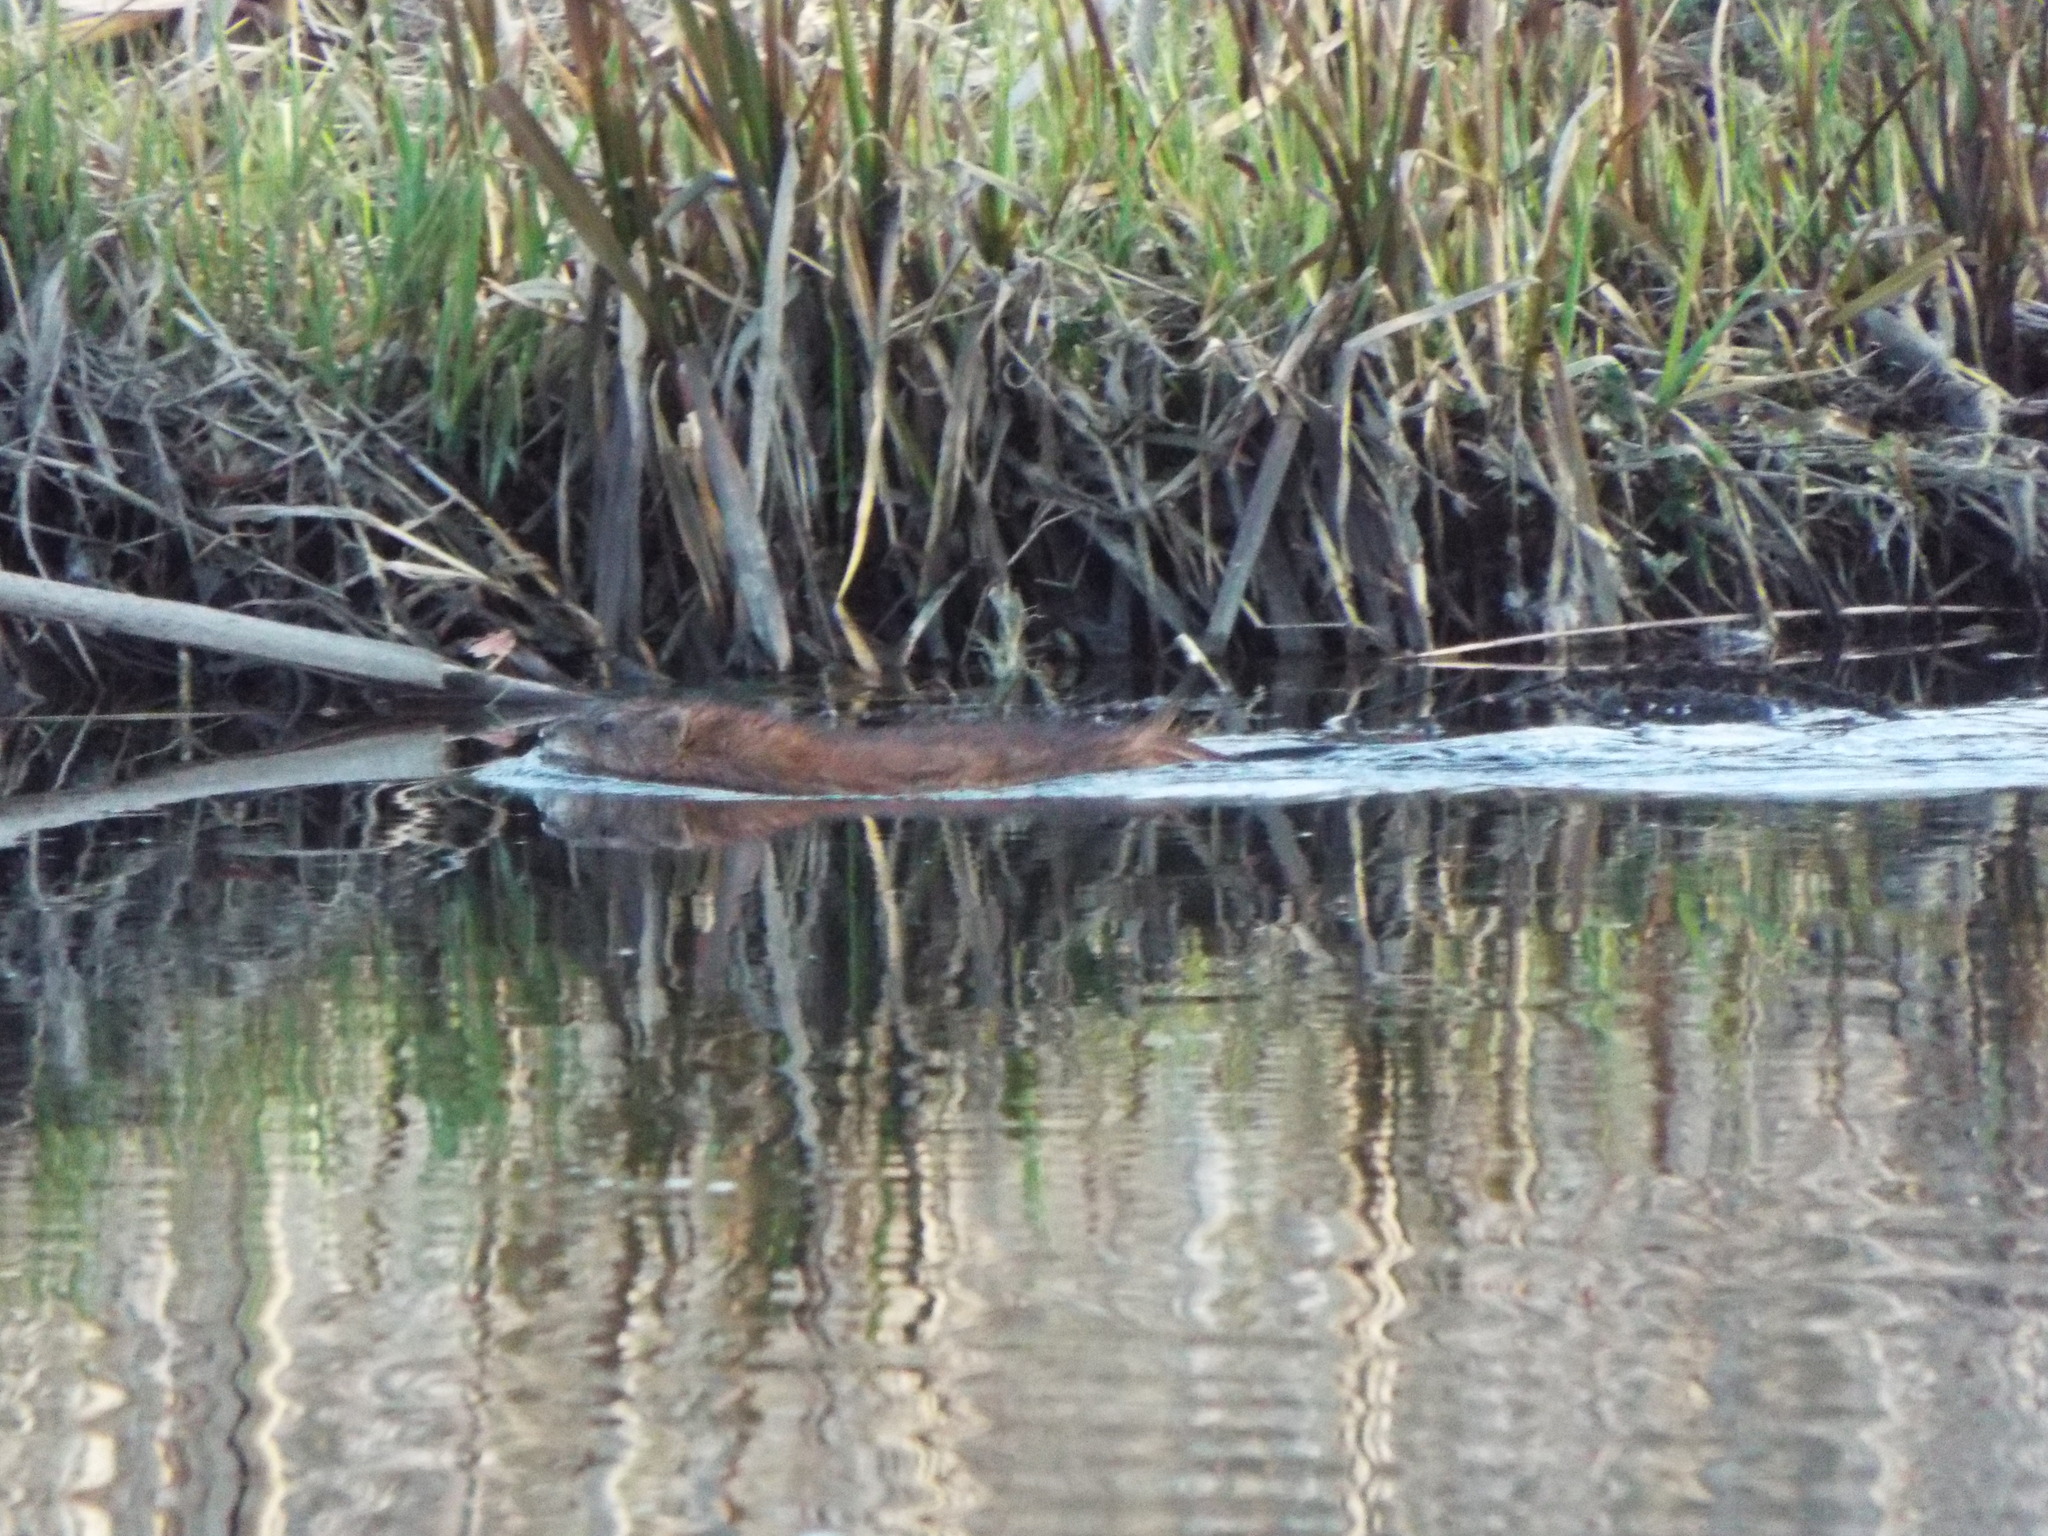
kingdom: Animalia
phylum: Chordata
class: Mammalia
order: Rodentia
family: Cricetidae
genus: Ondatra
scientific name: Ondatra zibethicus
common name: Muskrat
